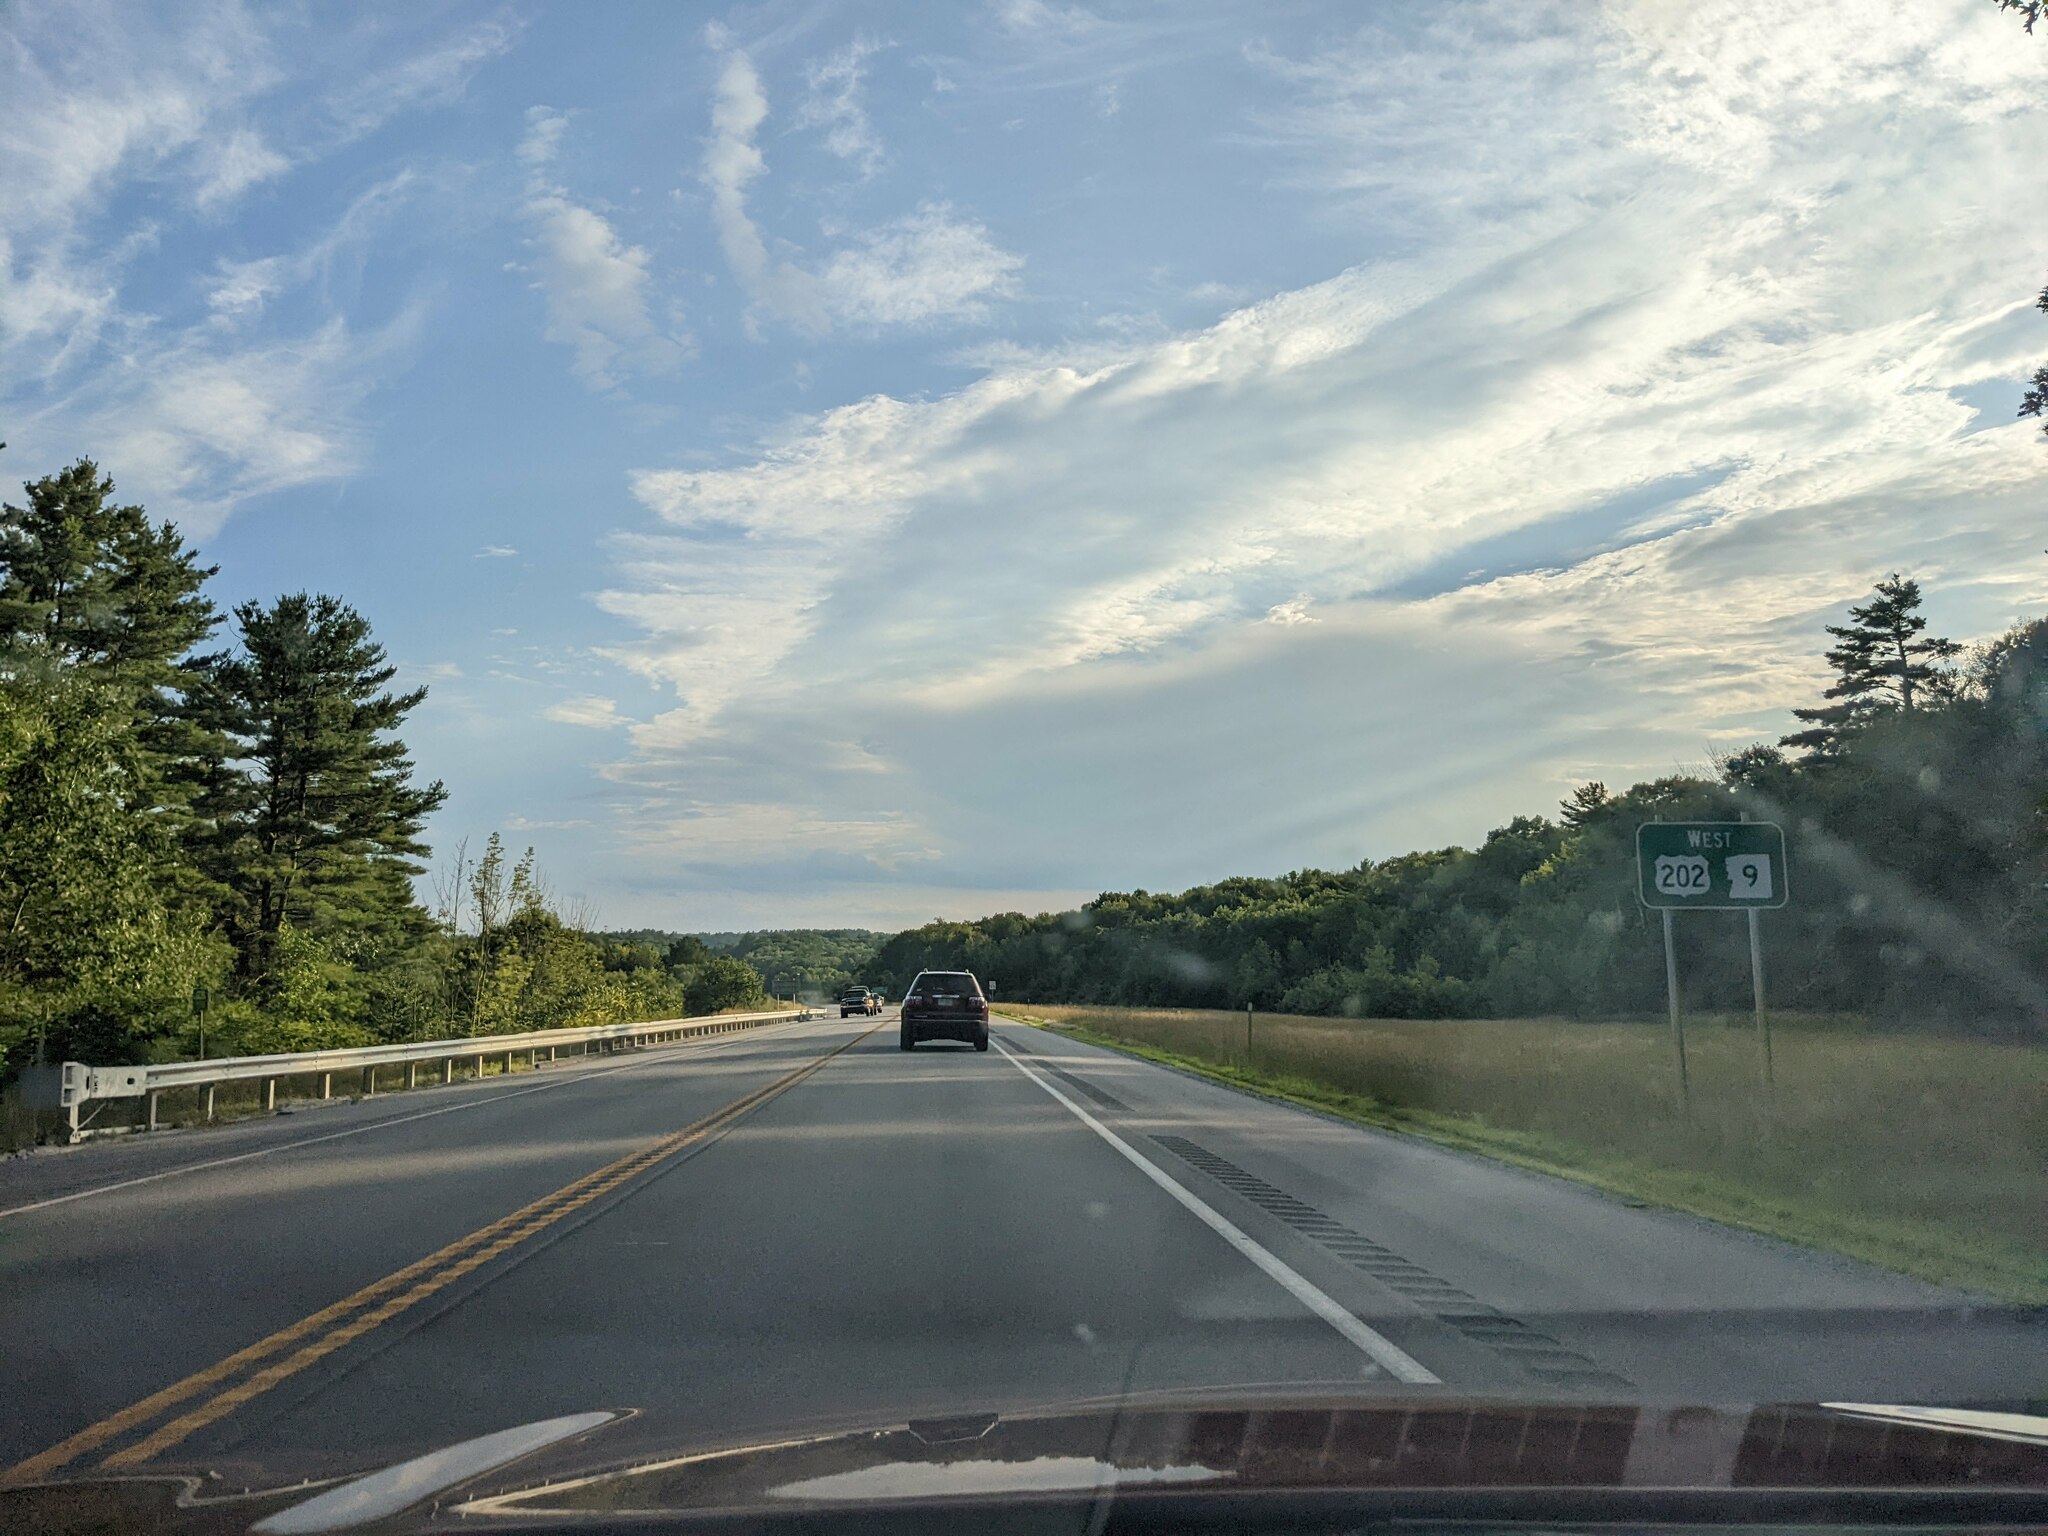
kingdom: Plantae
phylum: Tracheophyta
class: Pinopsida
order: Pinales
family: Pinaceae
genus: Pinus
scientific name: Pinus strobus
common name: Weymouth pine
